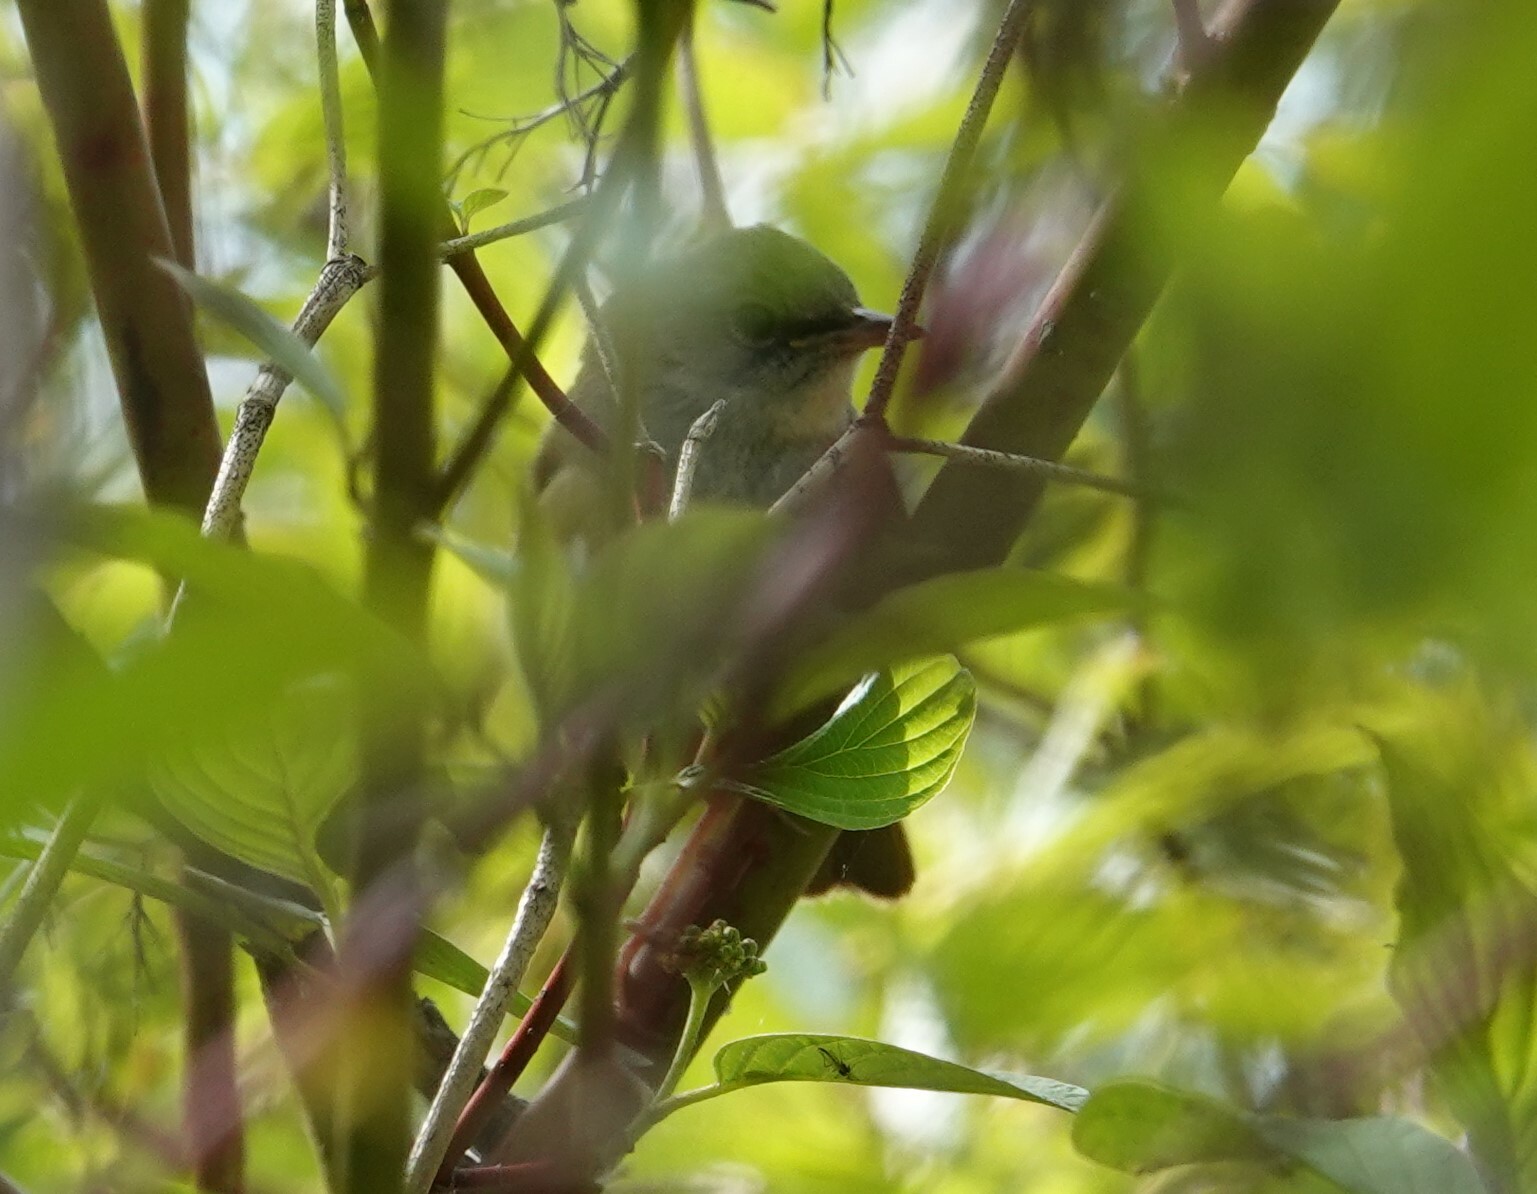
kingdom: Animalia
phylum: Chordata
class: Aves
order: Passeriformes
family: Parulidae
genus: Geothlypis
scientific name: Geothlypis philadelphia
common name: Mourning warbler
